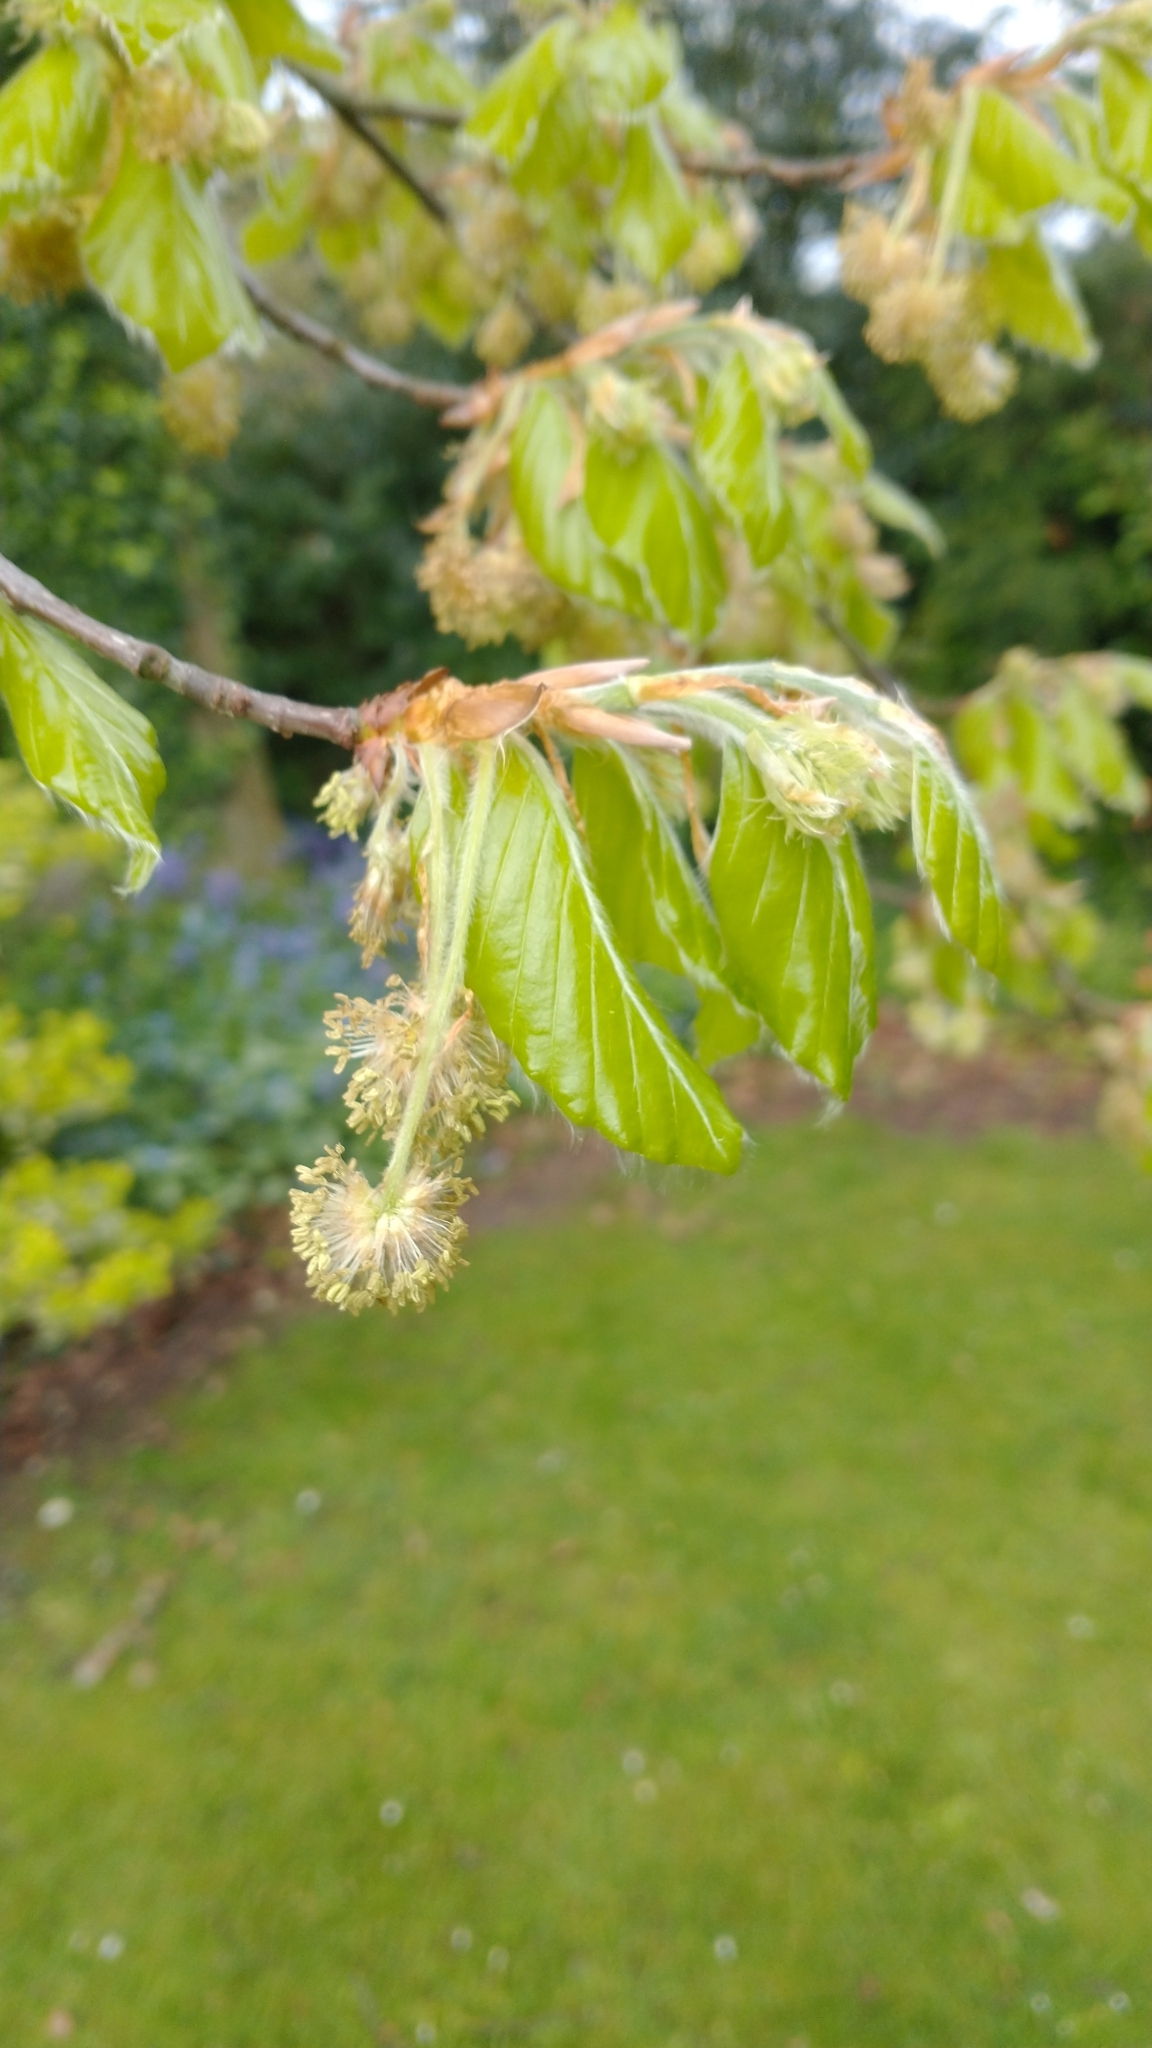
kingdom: Plantae
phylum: Tracheophyta
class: Magnoliopsida
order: Fagales
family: Fagaceae
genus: Fagus
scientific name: Fagus sylvatica
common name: Beech
